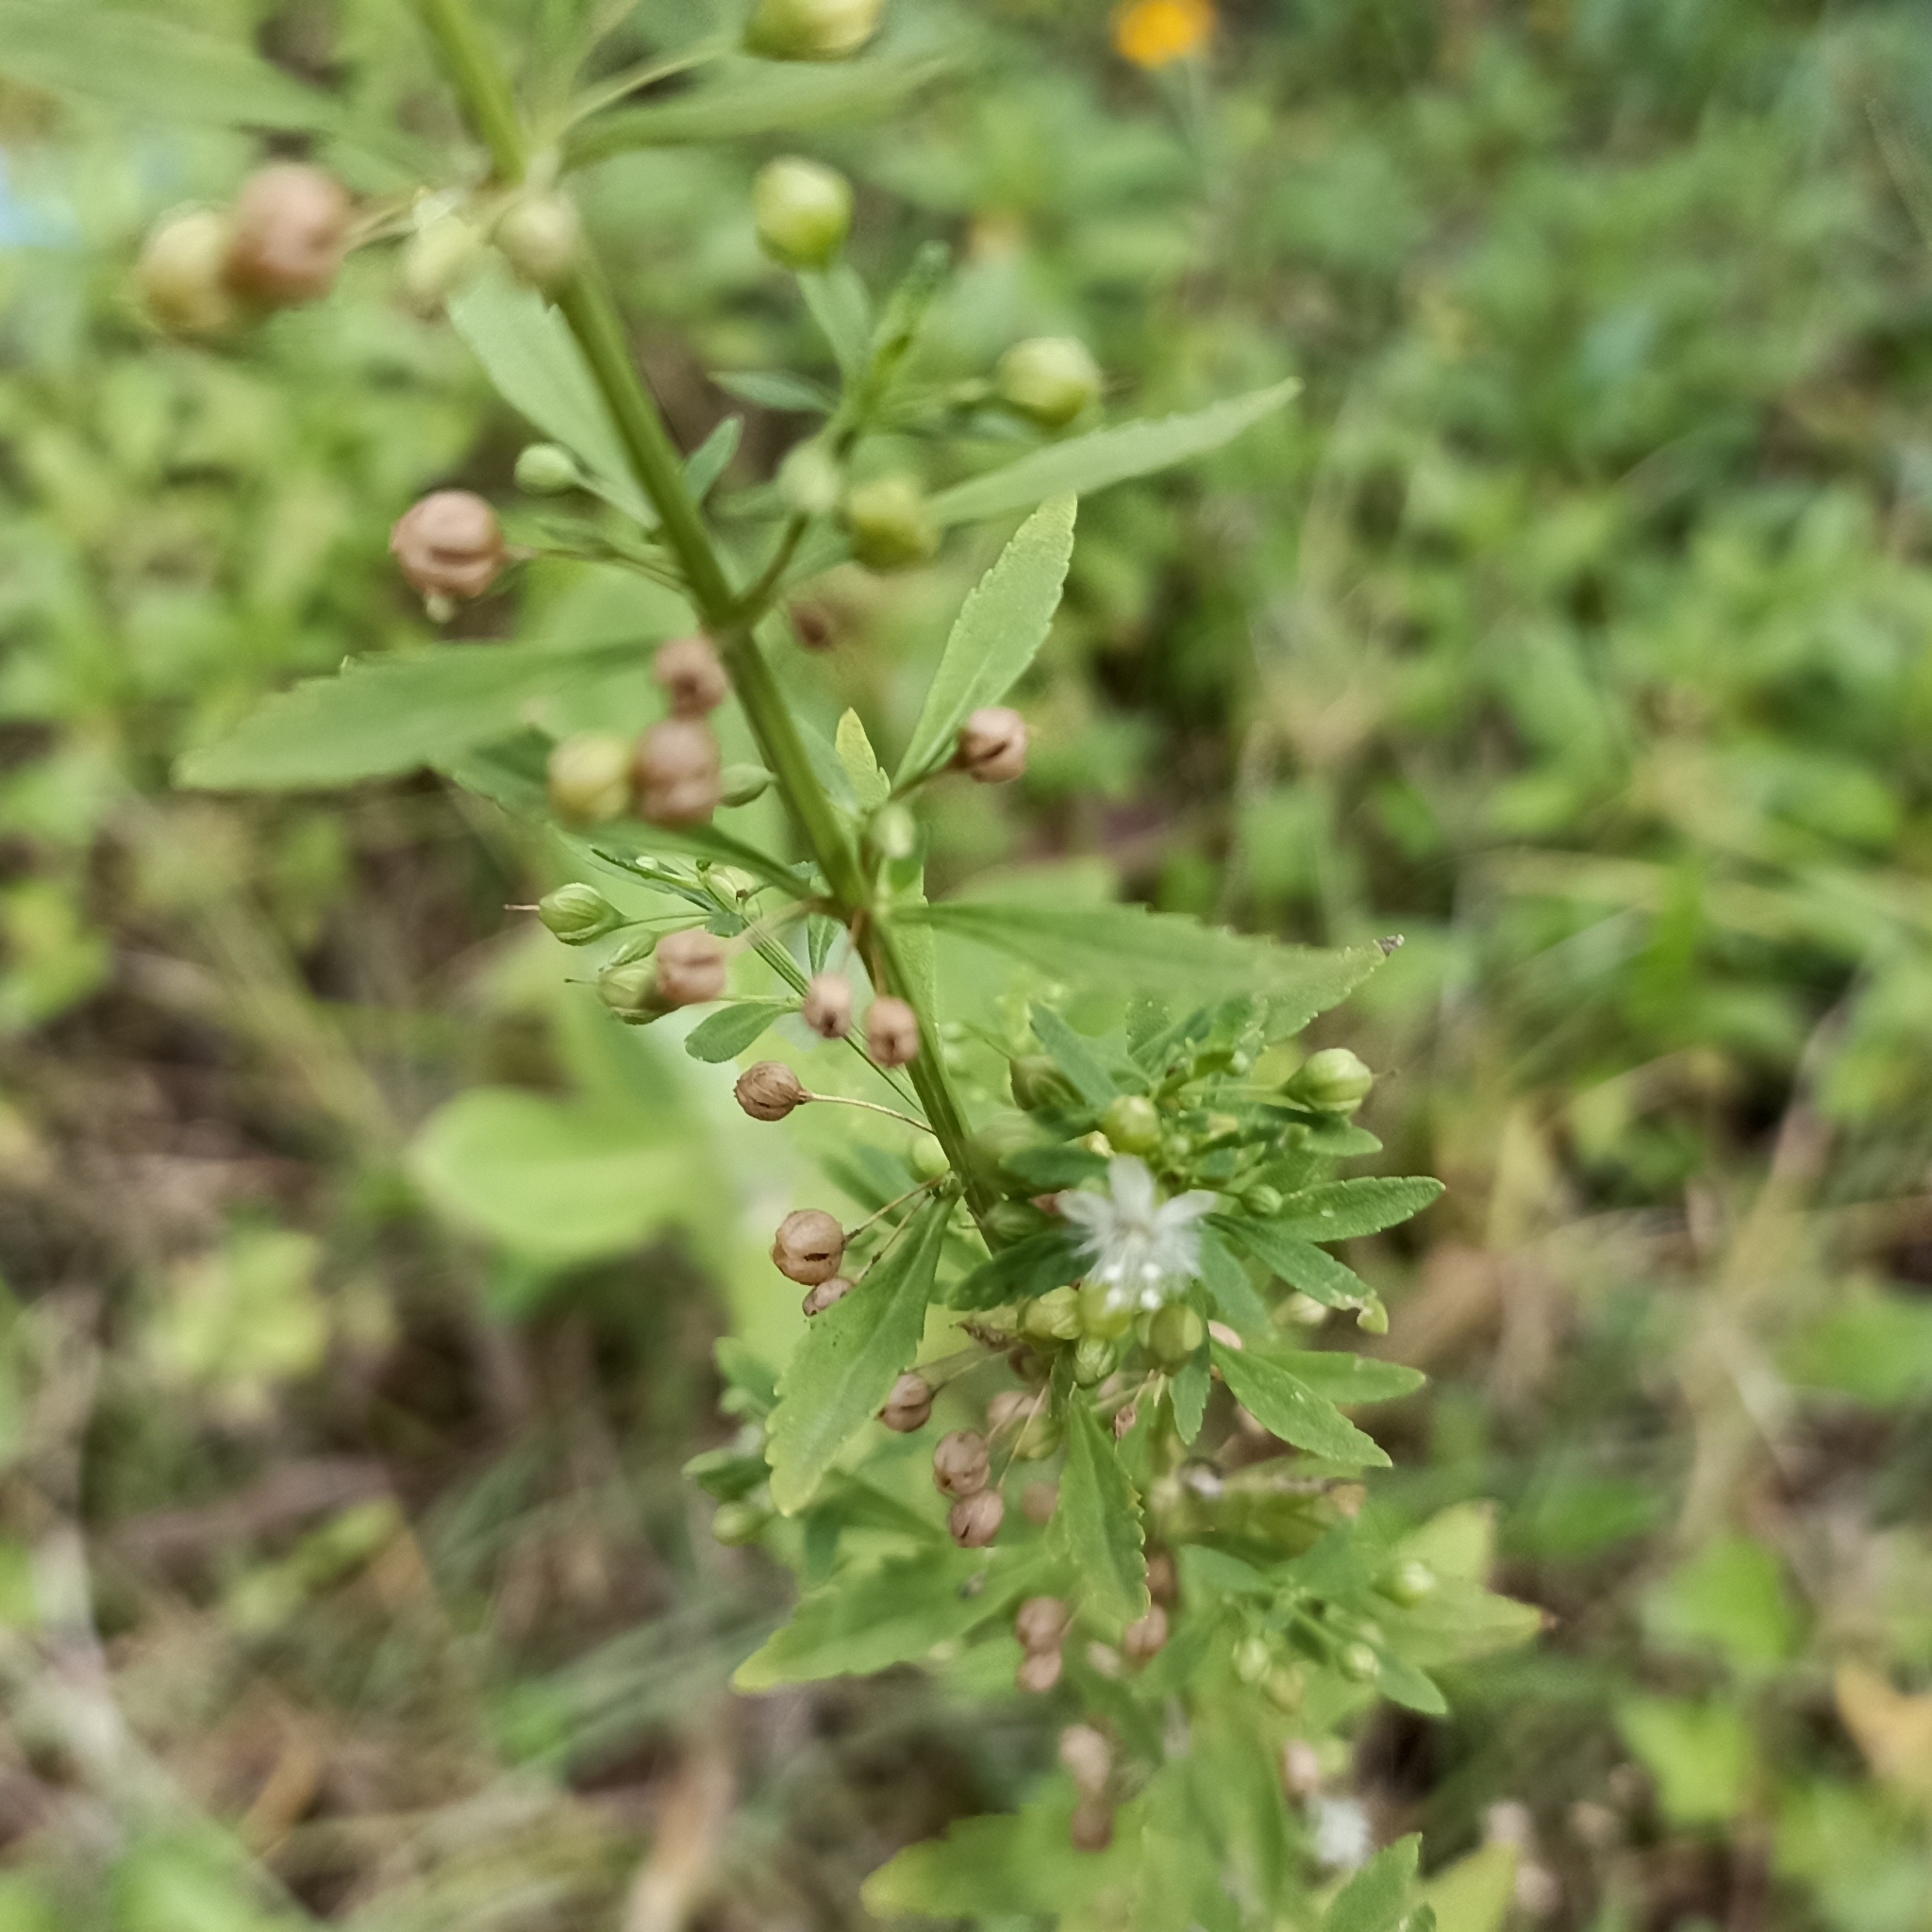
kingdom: Plantae
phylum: Tracheophyta
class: Magnoliopsida
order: Lamiales
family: Plantaginaceae
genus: Scoparia
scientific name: Scoparia dulcis
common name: Scoparia-weed
